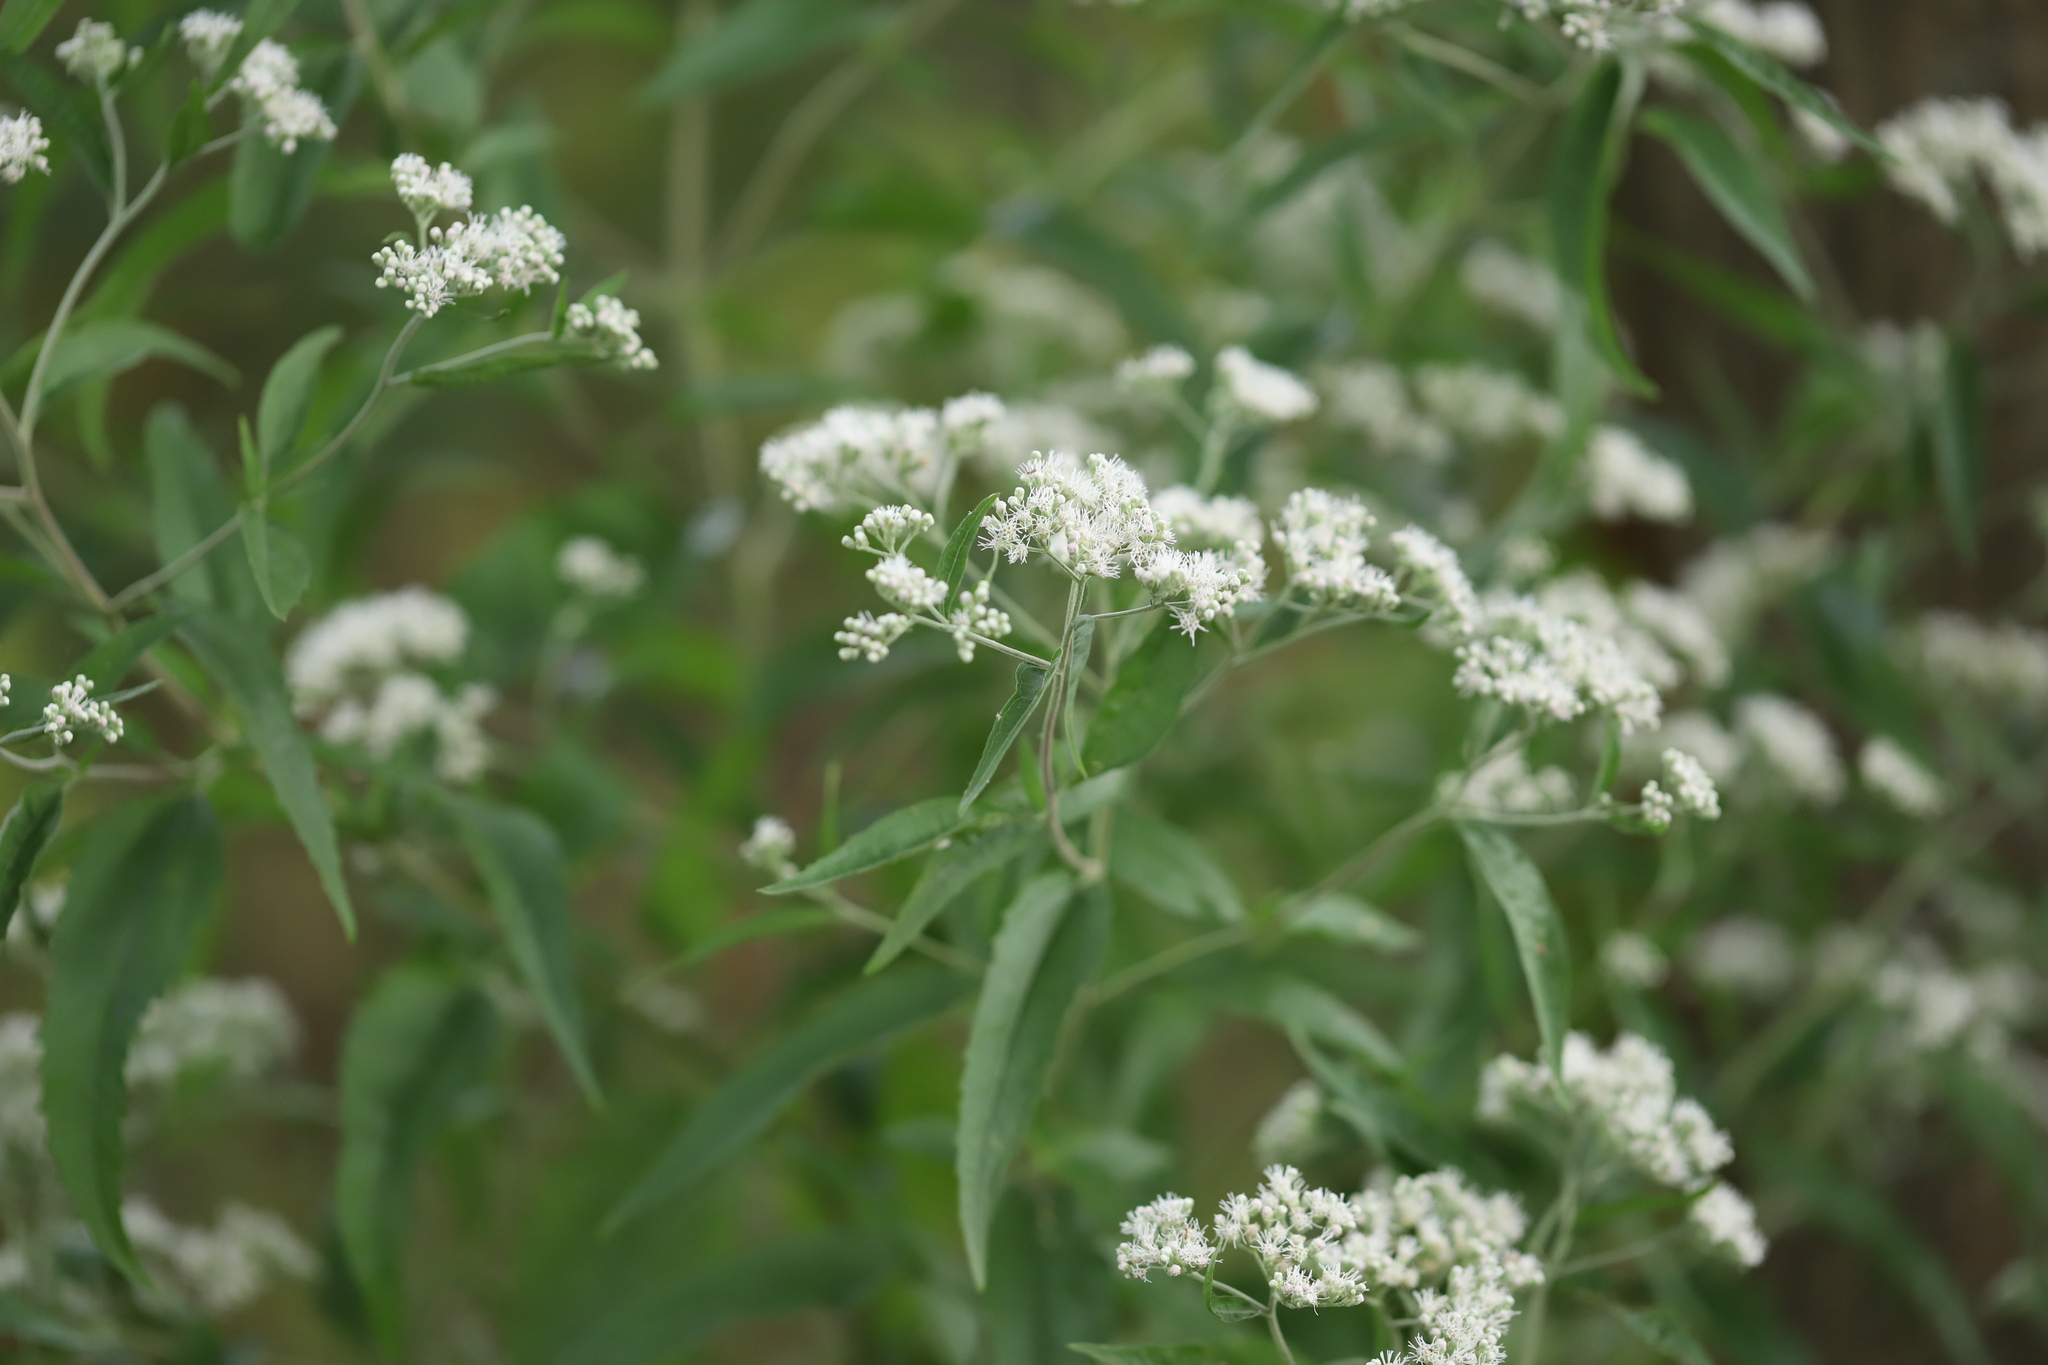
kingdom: Plantae
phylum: Tracheophyta
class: Magnoliopsida
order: Asterales
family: Asteraceae
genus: Eupatorium
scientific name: Eupatorium serotinum
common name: Late boneset
